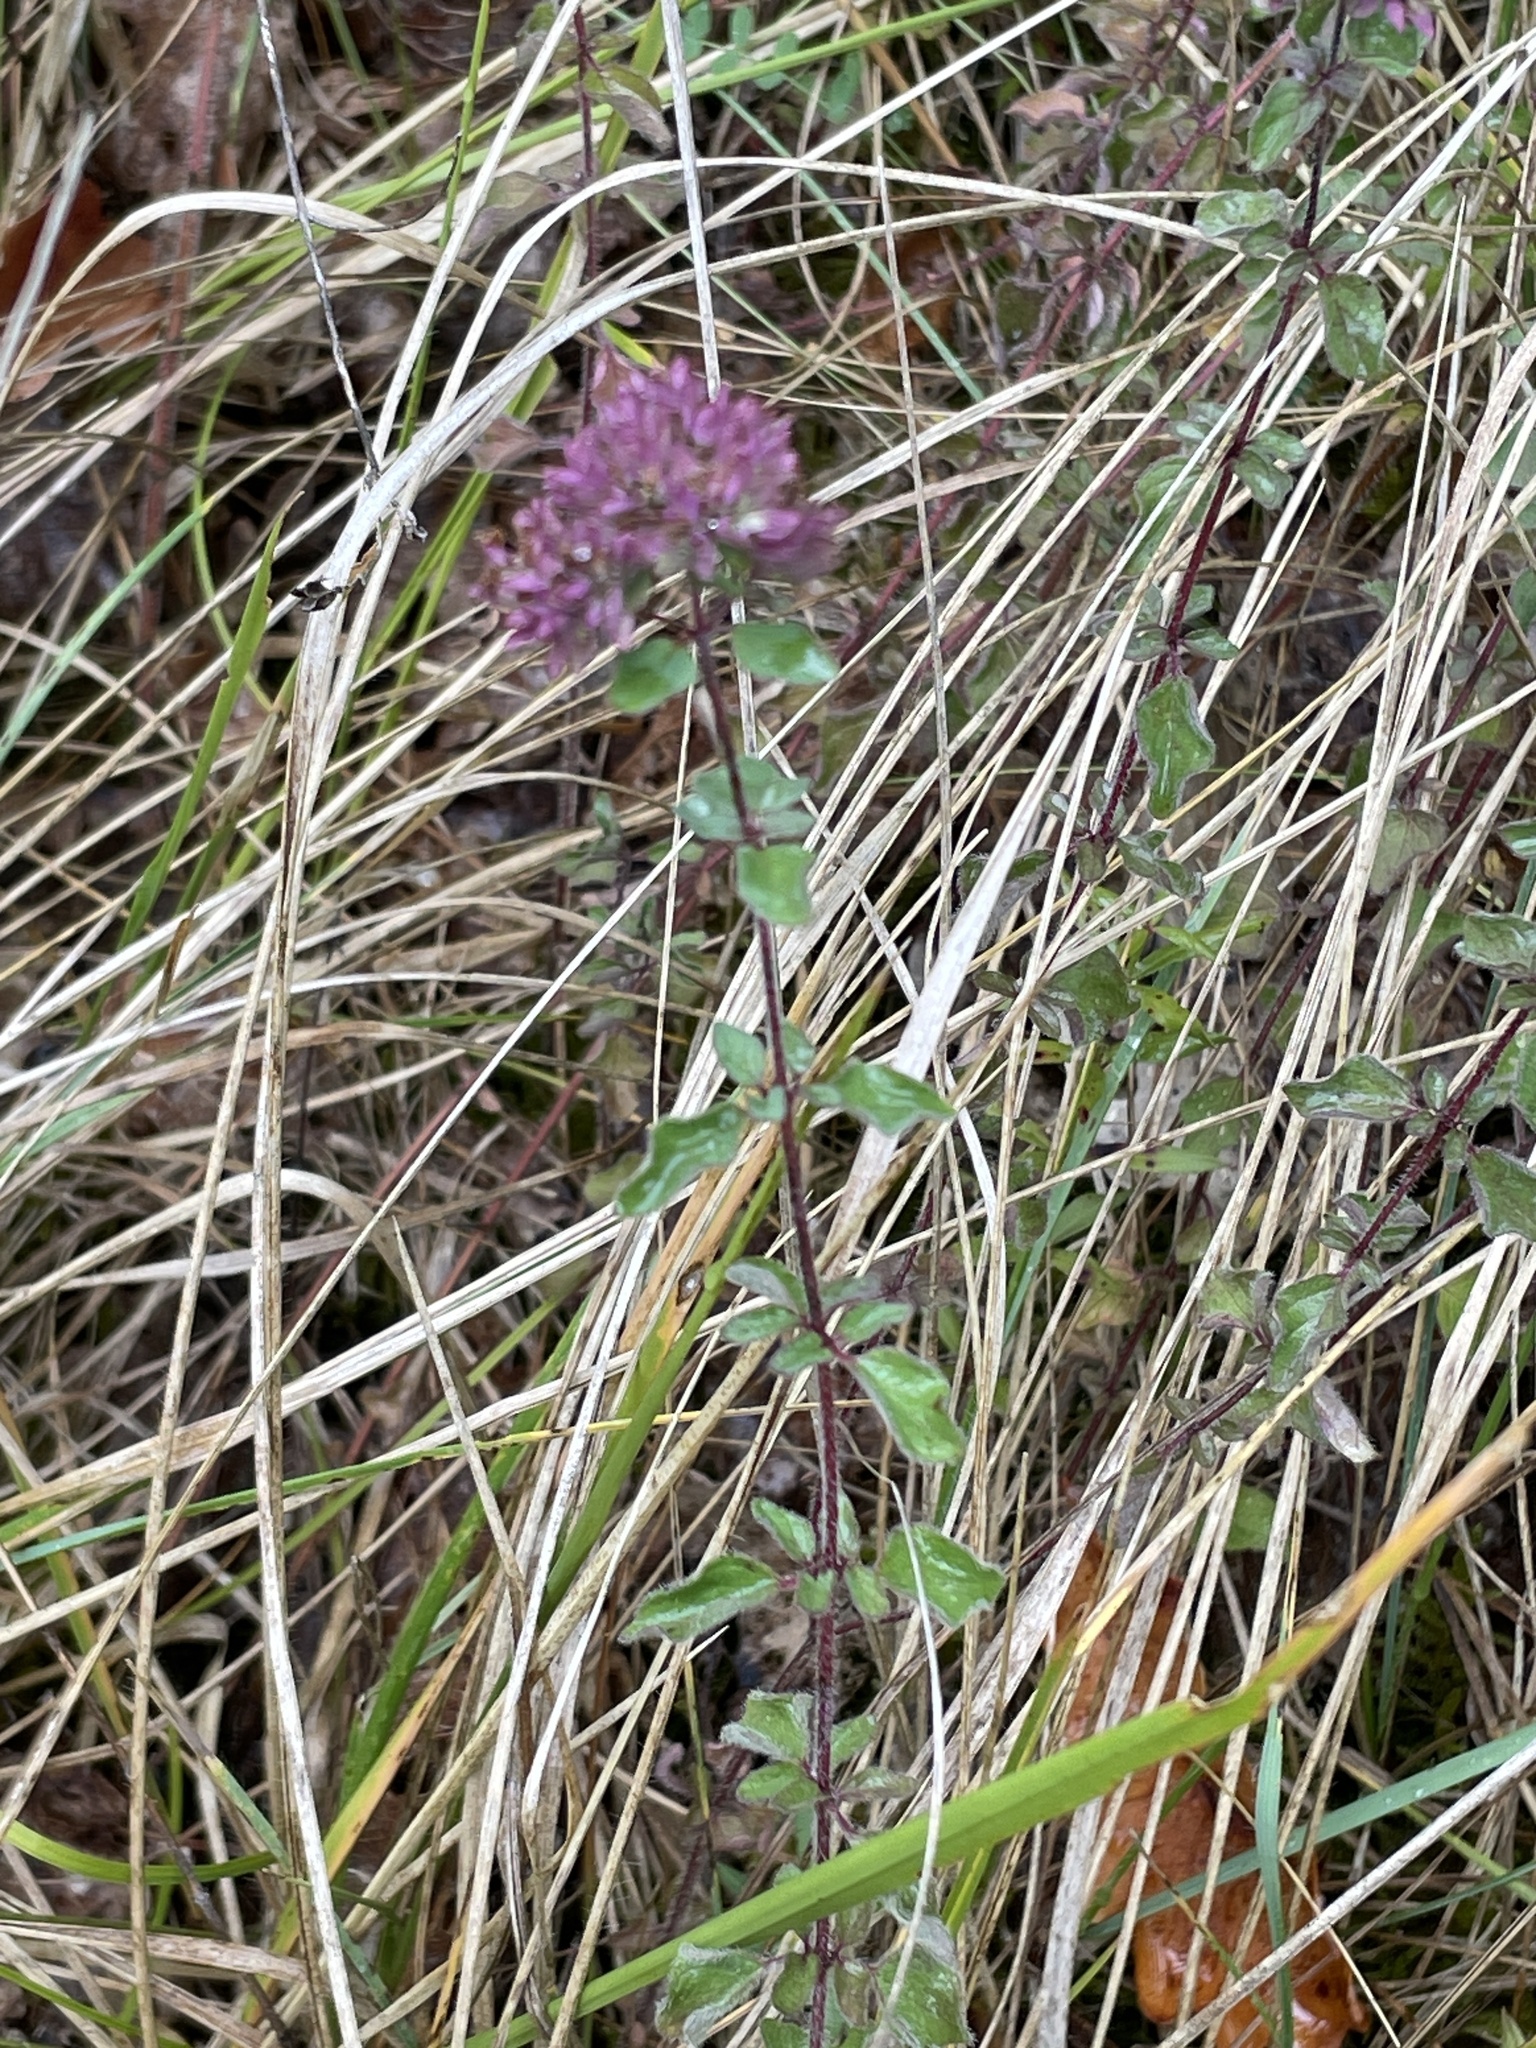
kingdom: Plantae
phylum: Tracheophyta
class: Magnoliopsida
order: Lamiales
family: Lamiaceae
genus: Origanum
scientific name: Origanum vulgare
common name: Wild marjoram
